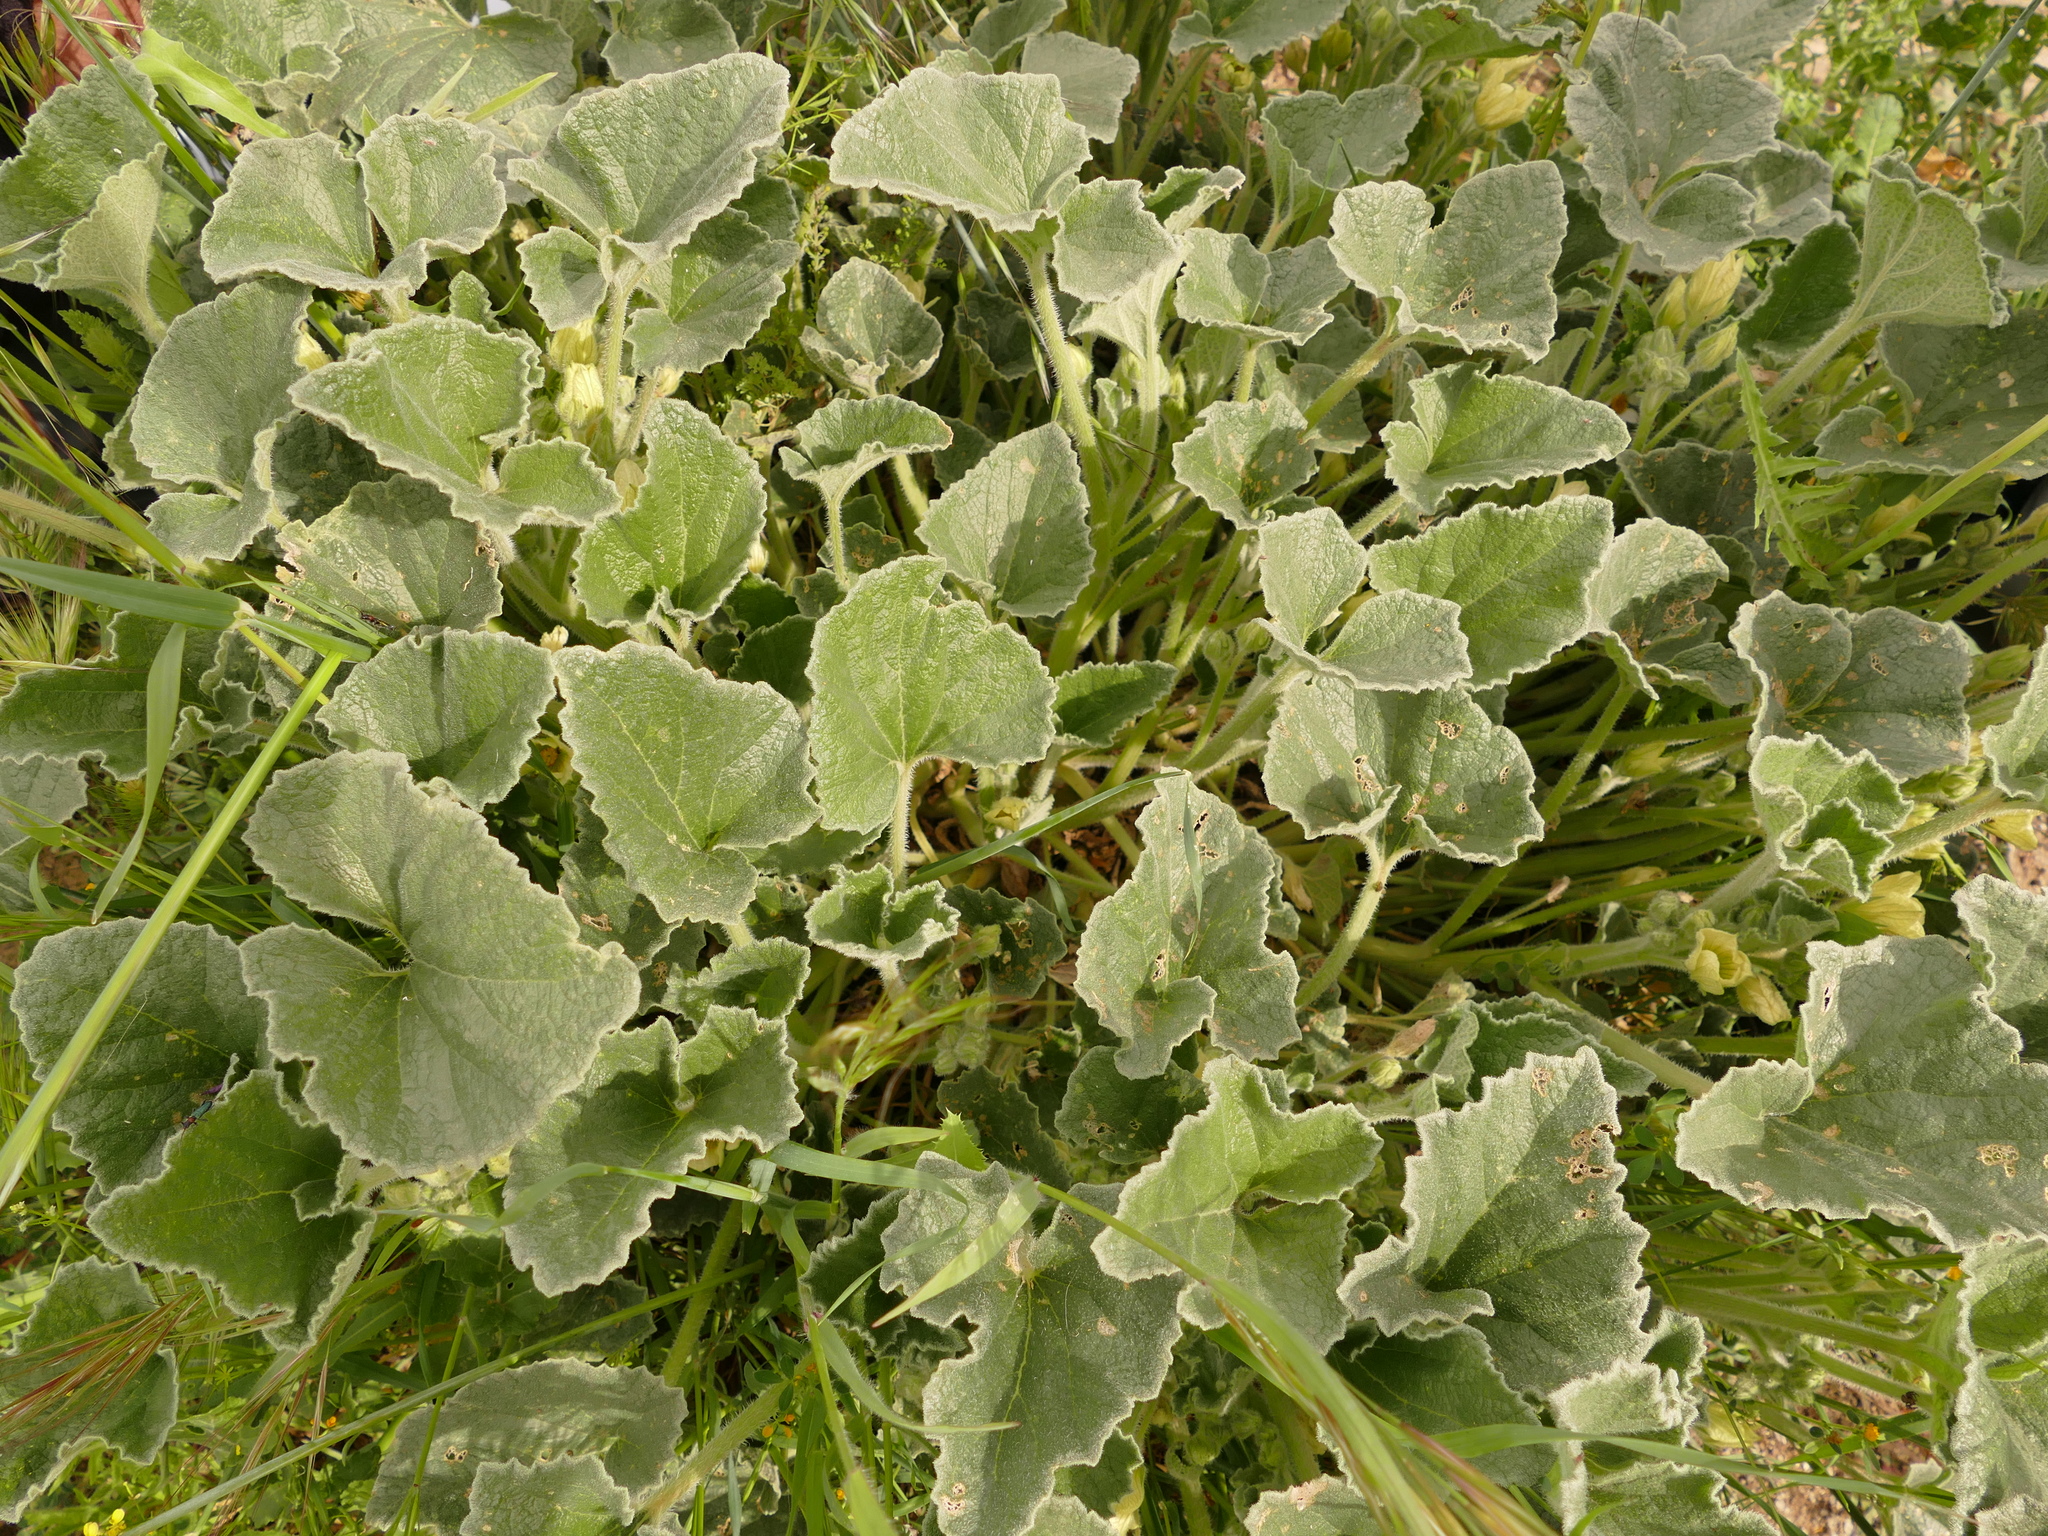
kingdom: Plantae
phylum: Tracheophyta
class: Magnoliopsida
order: Cucurbitales
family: Cucurbitaceae
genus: Ecballium
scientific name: Ecballium elaterium
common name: Squirting cucumber
